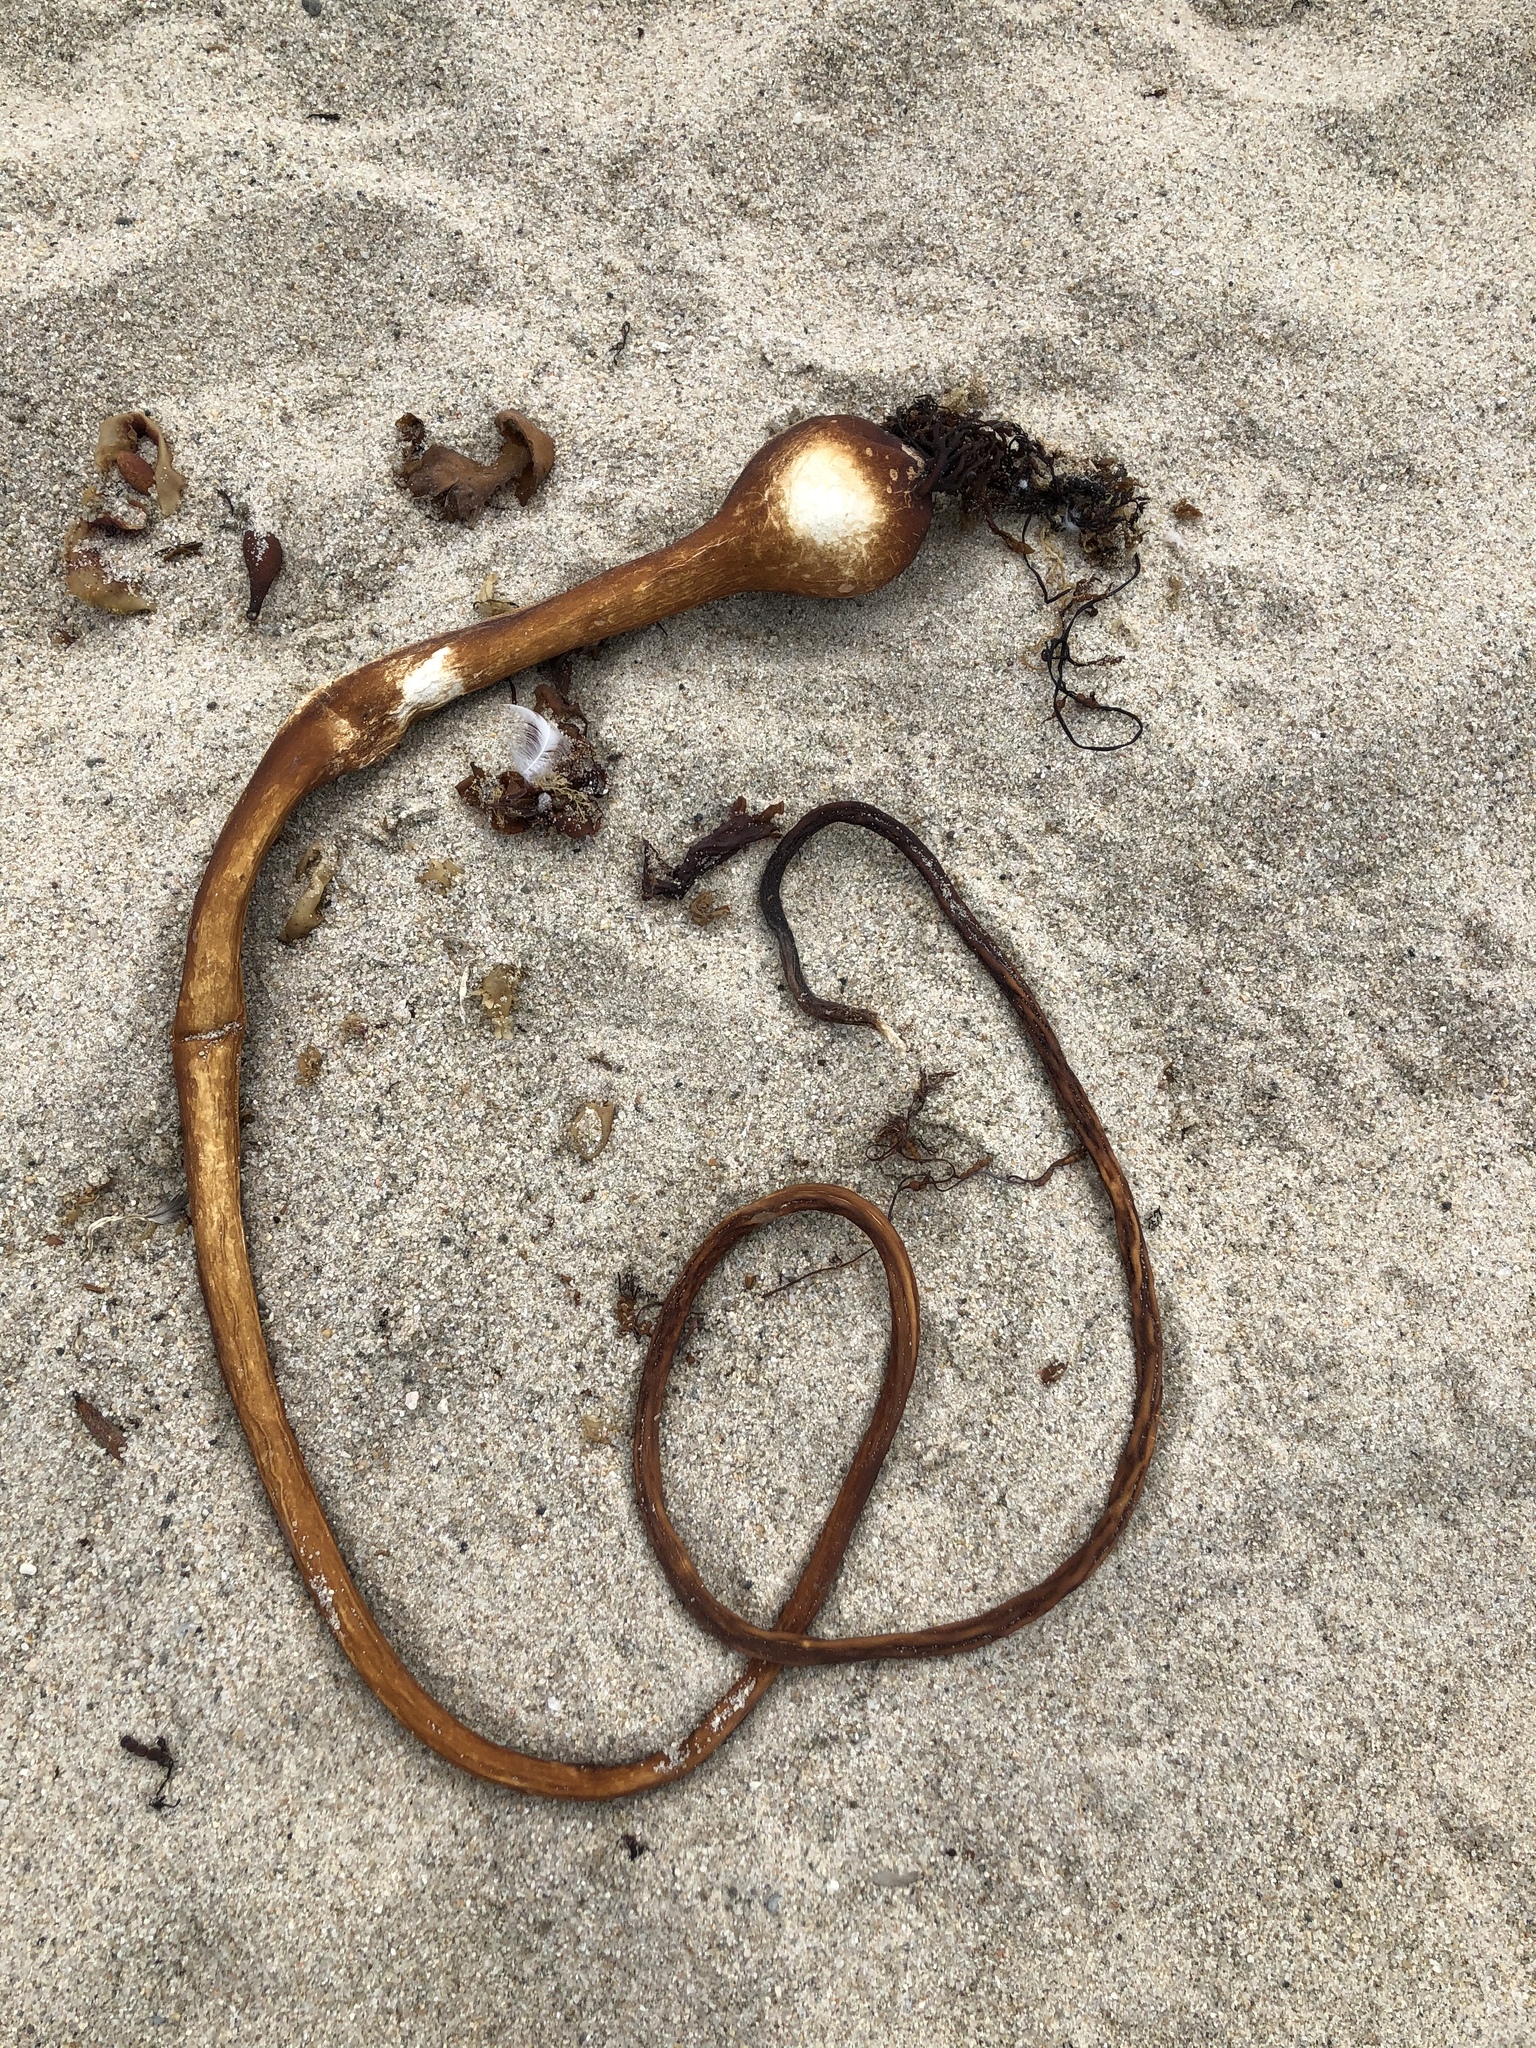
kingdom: Chromista
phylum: Ochrophyta
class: Phaeophyceae
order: Laminariales
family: Laminariaceae
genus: Nereocystis
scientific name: Nereocystis luetkeana
